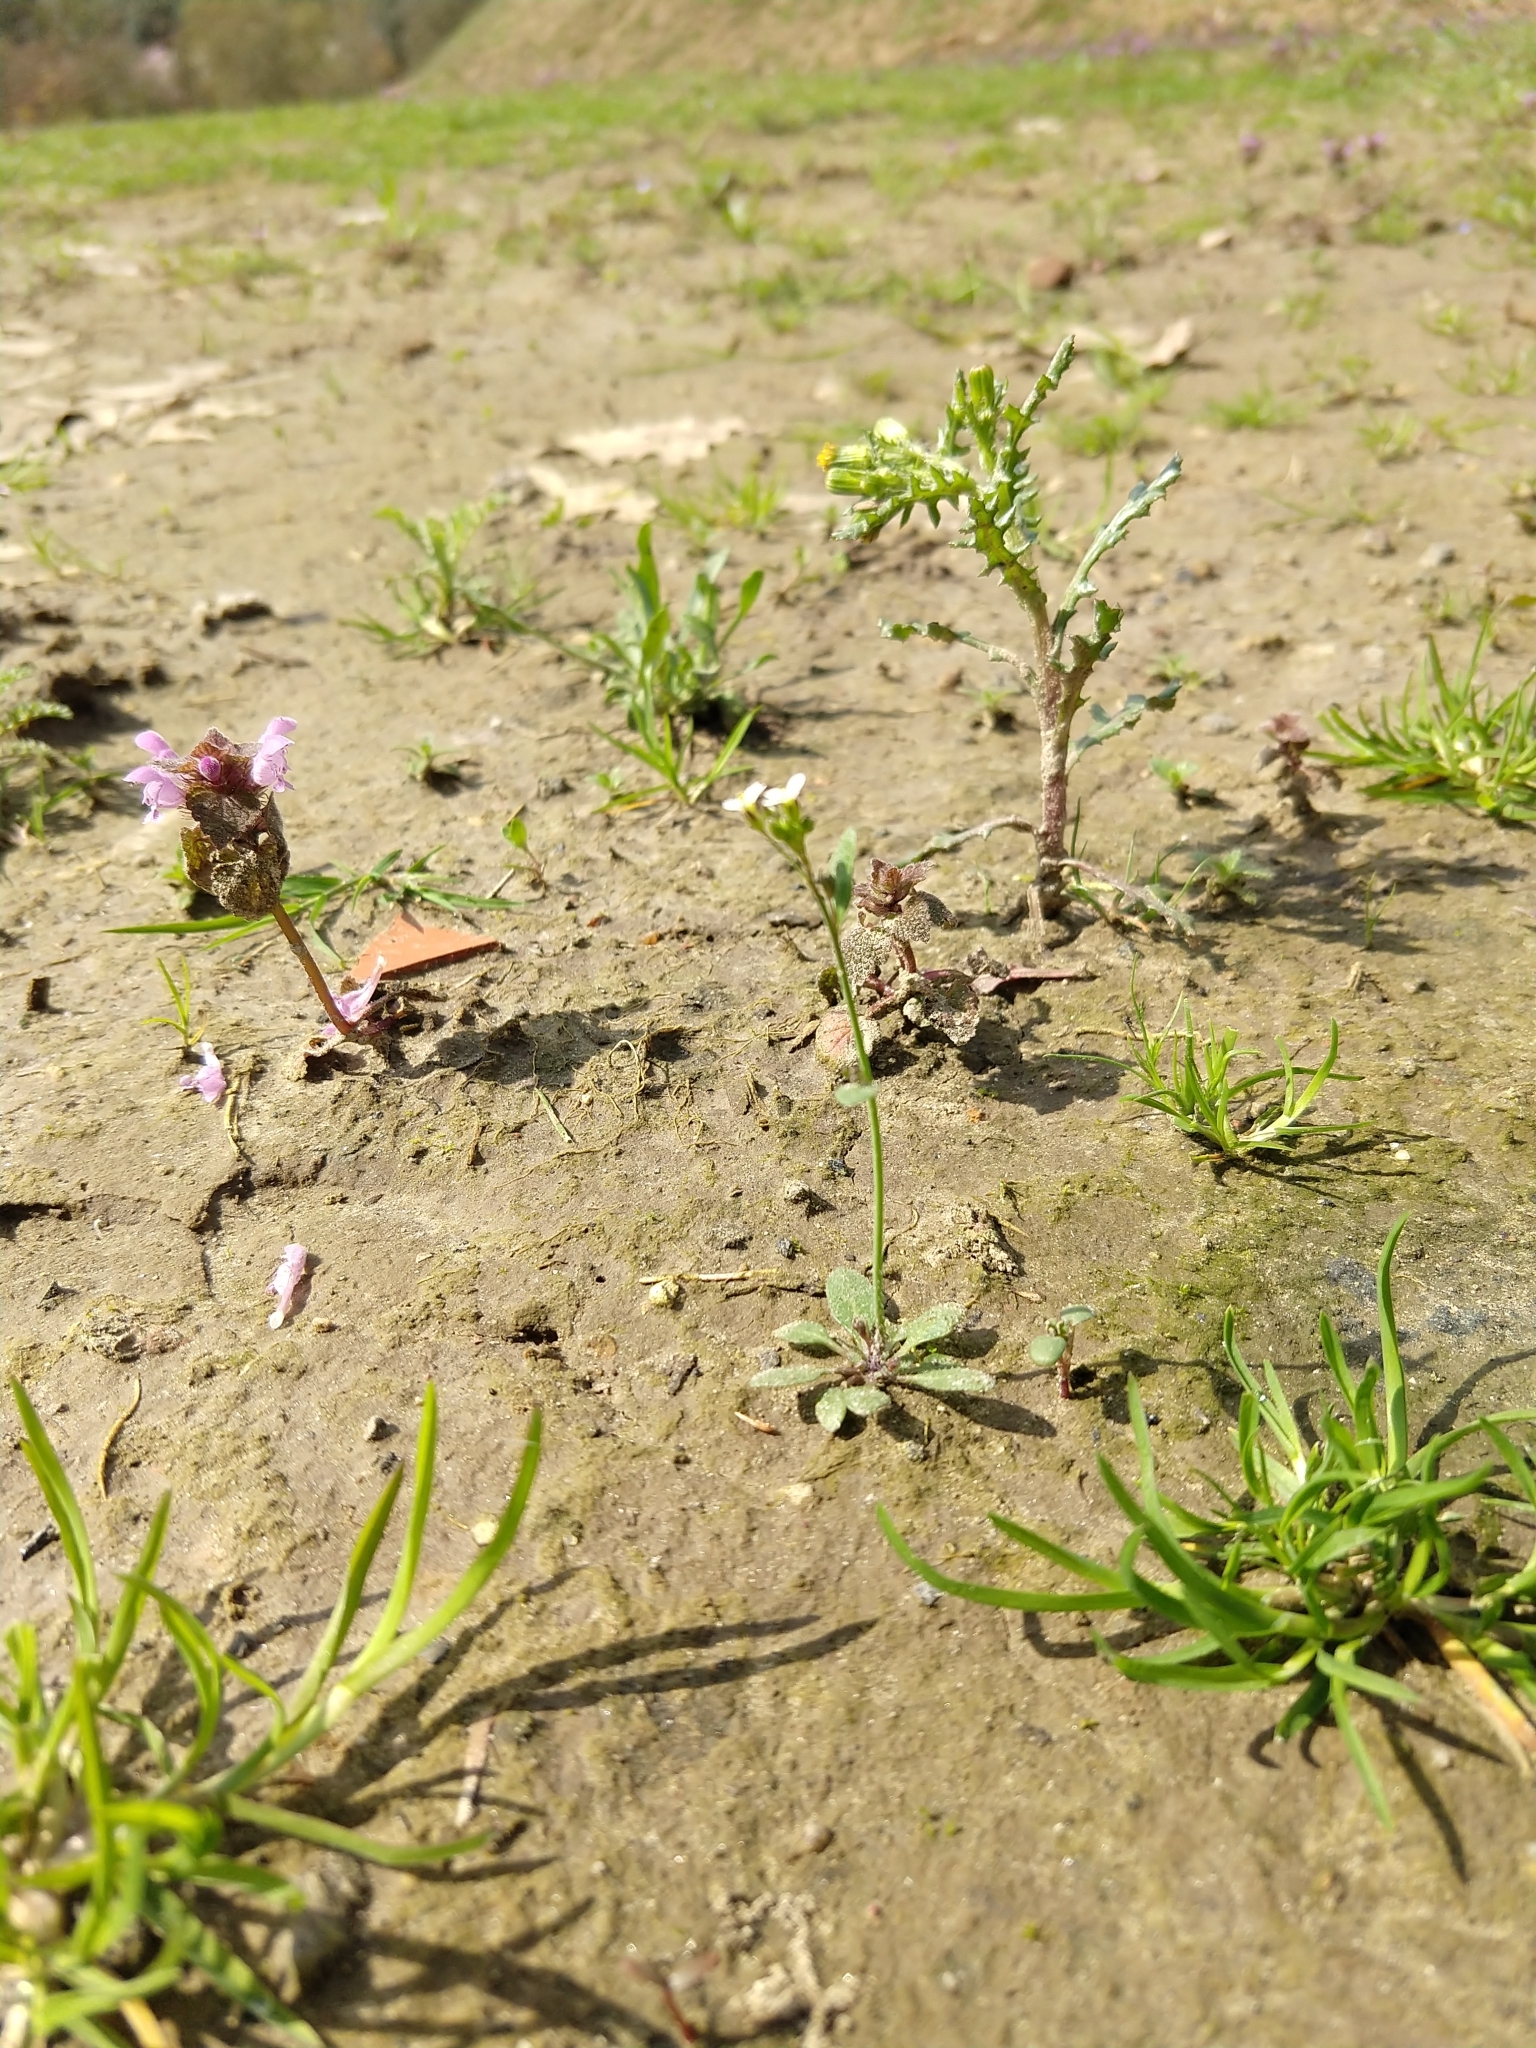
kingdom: Plantae
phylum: Tracheophyta
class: Magnoliopsida
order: Brassicales
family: Brassicaceae
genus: Arabidopsis
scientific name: Arabidopsis thaliana
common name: Thale cress
